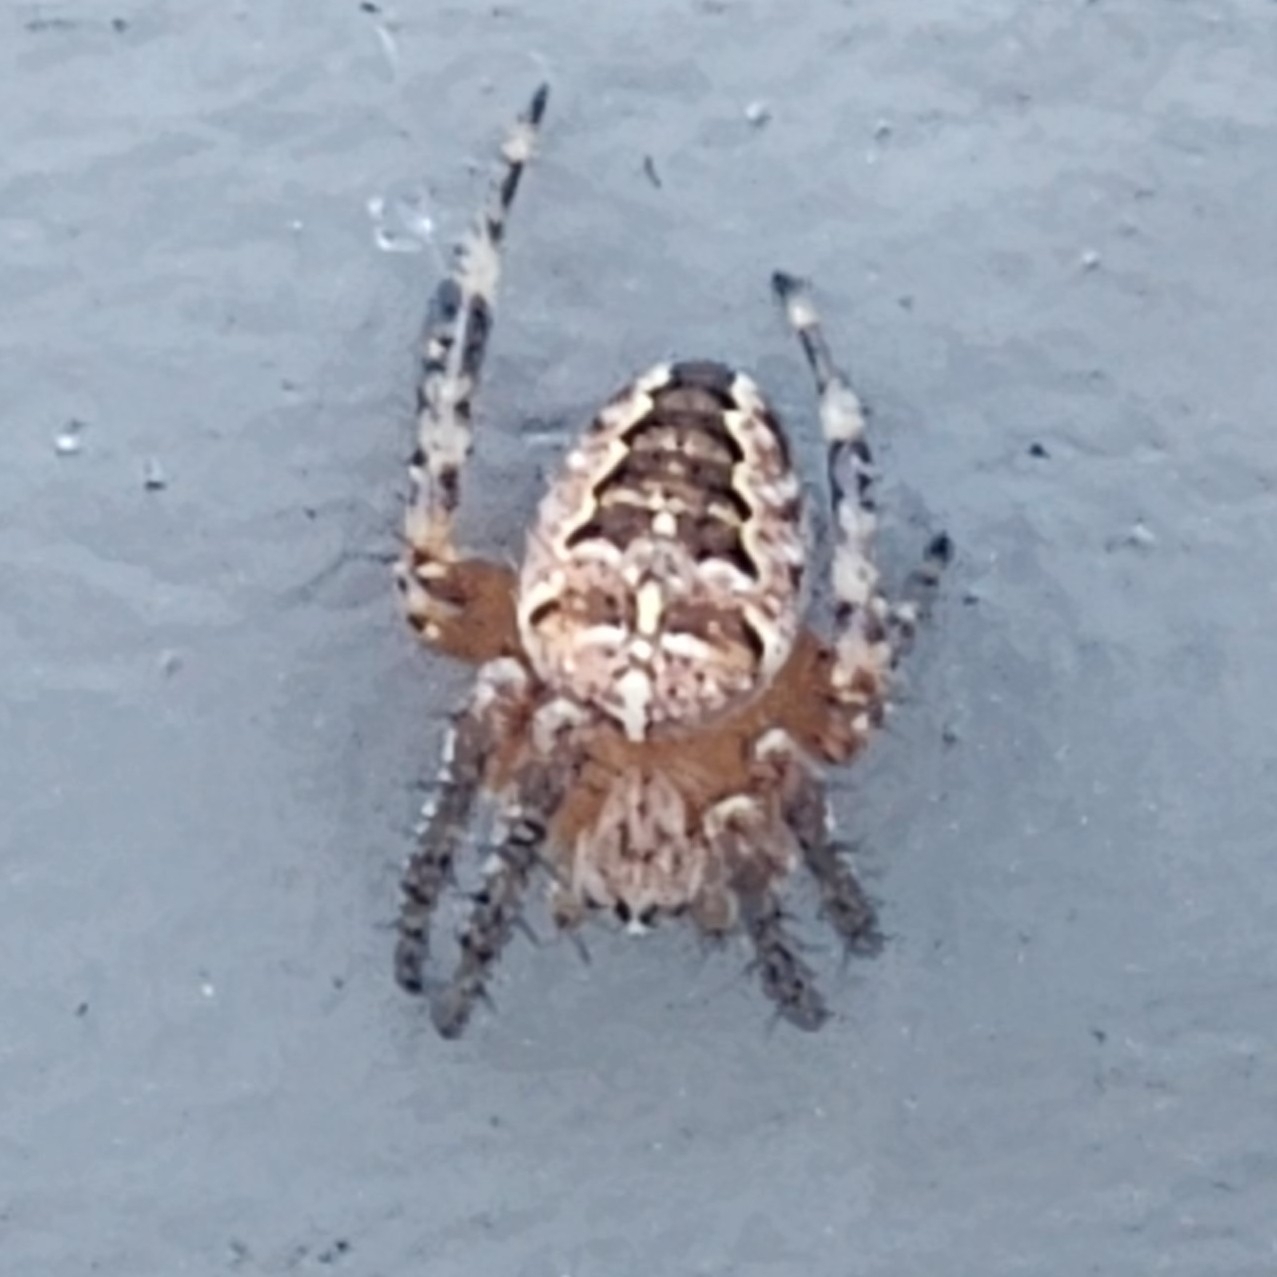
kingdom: Animalia
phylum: Arthropoda
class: Arachnida
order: Araneae
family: Araneidae
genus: Araneus
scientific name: Araneus diadematus
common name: Cross orbweaver
